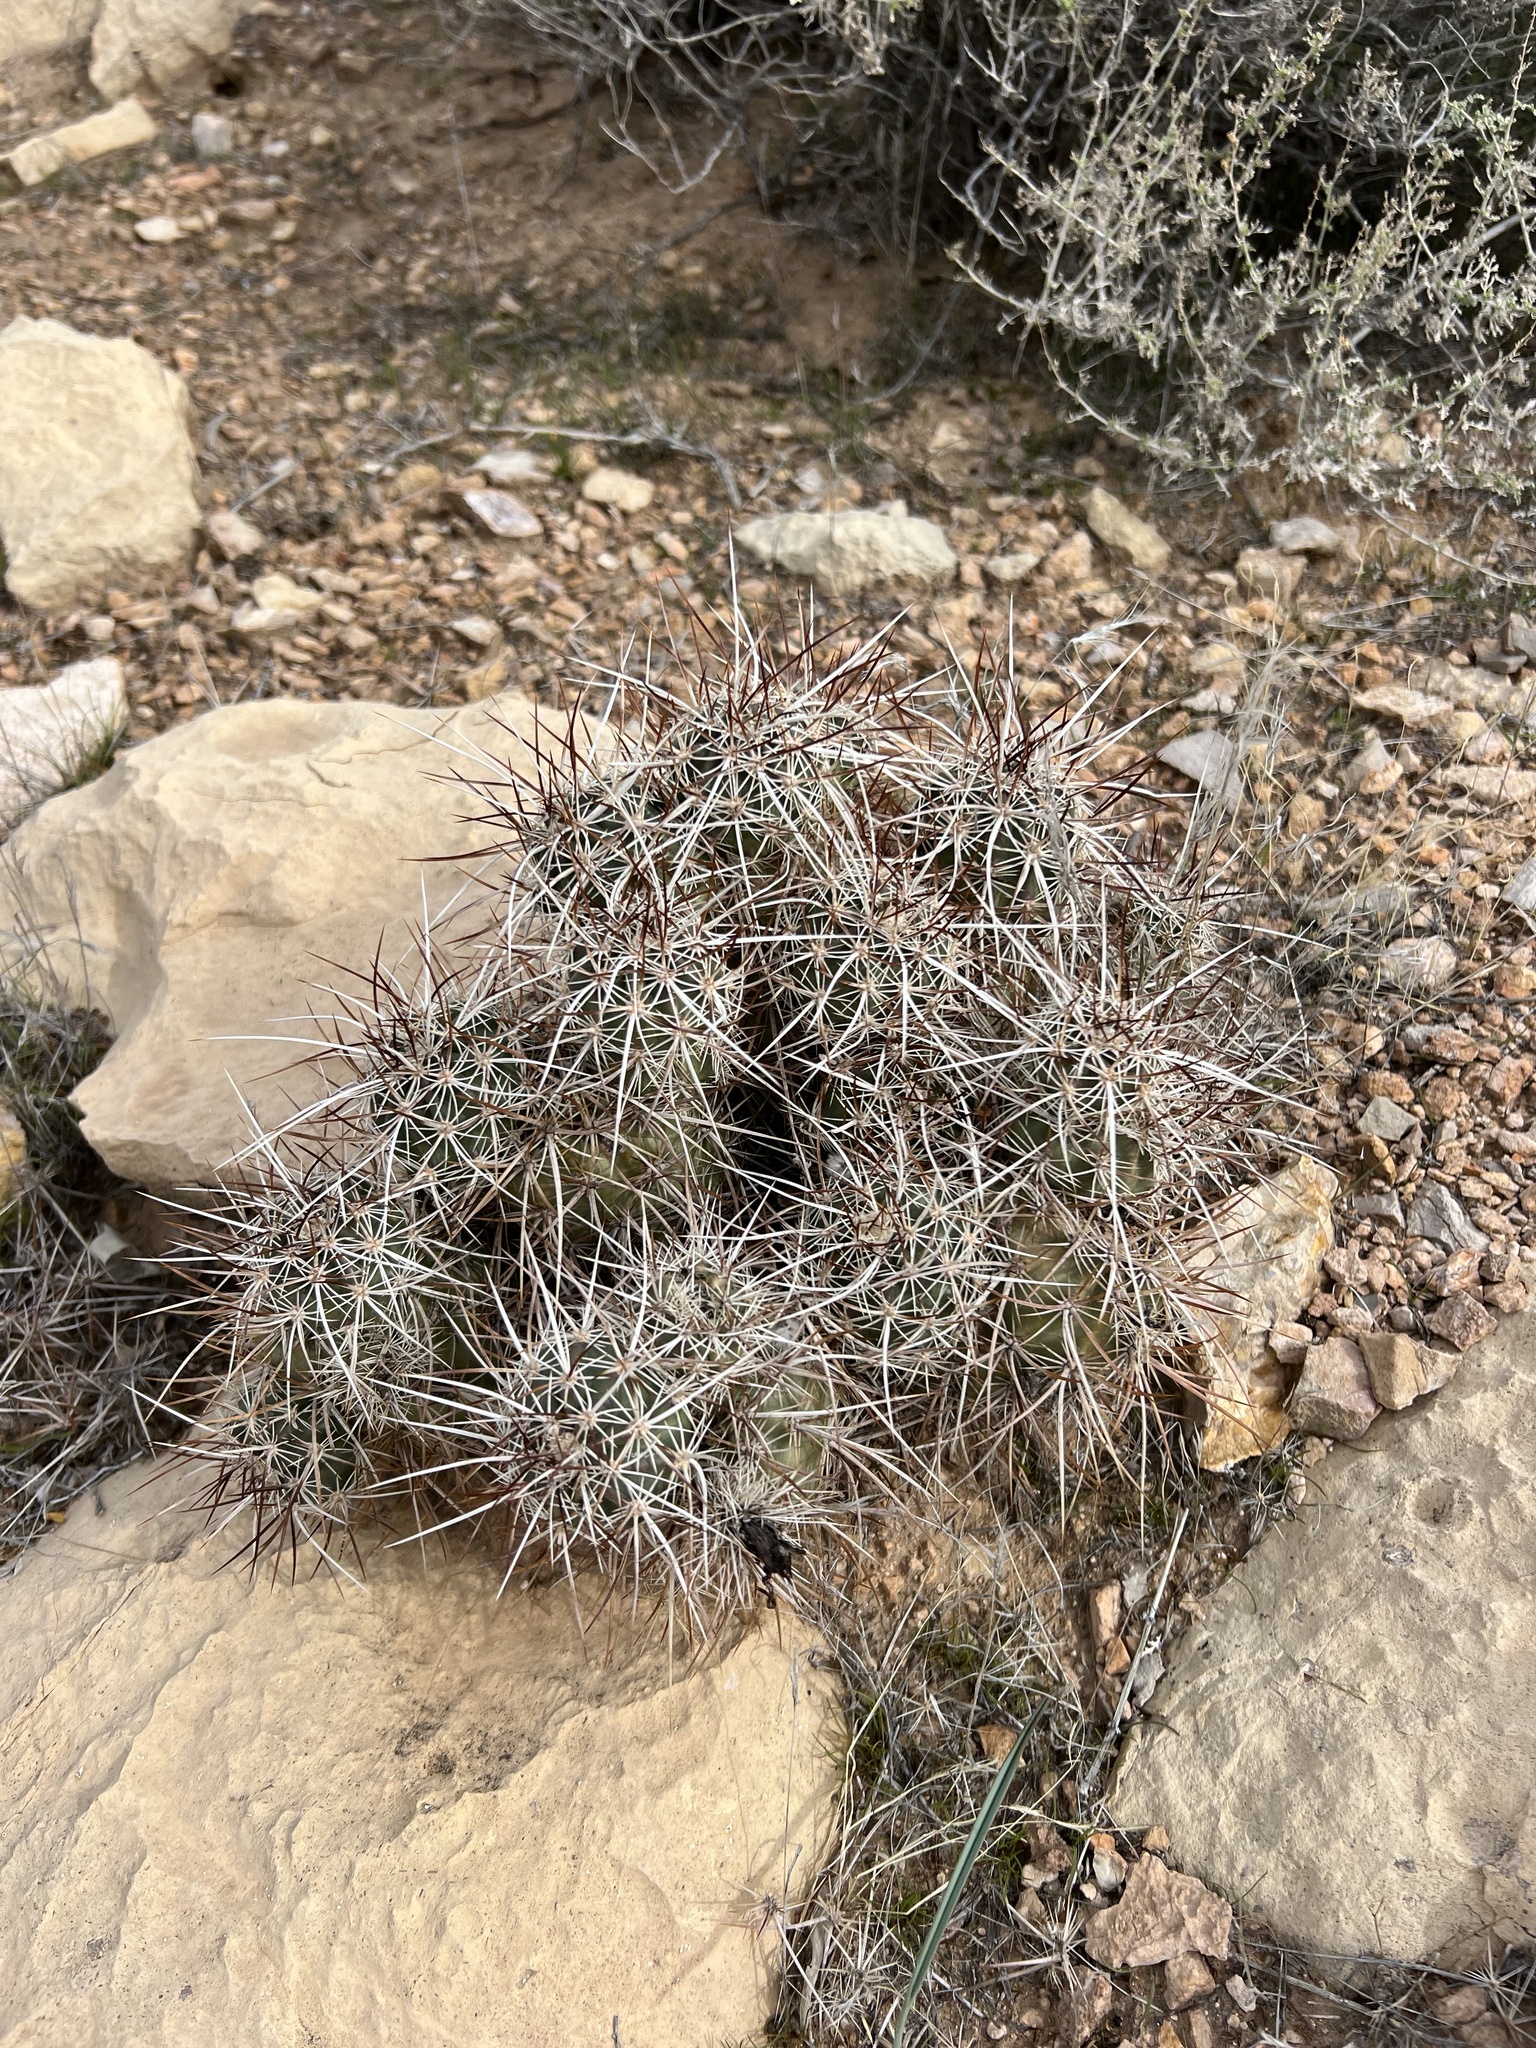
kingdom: Plantae
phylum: Tracheophyta
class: Magnoliopsida
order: Caryophyllales
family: Cactaceae
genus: Echinocereus
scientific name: Echinocereus engelmannii
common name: Engelmann's hedgehog cactus
